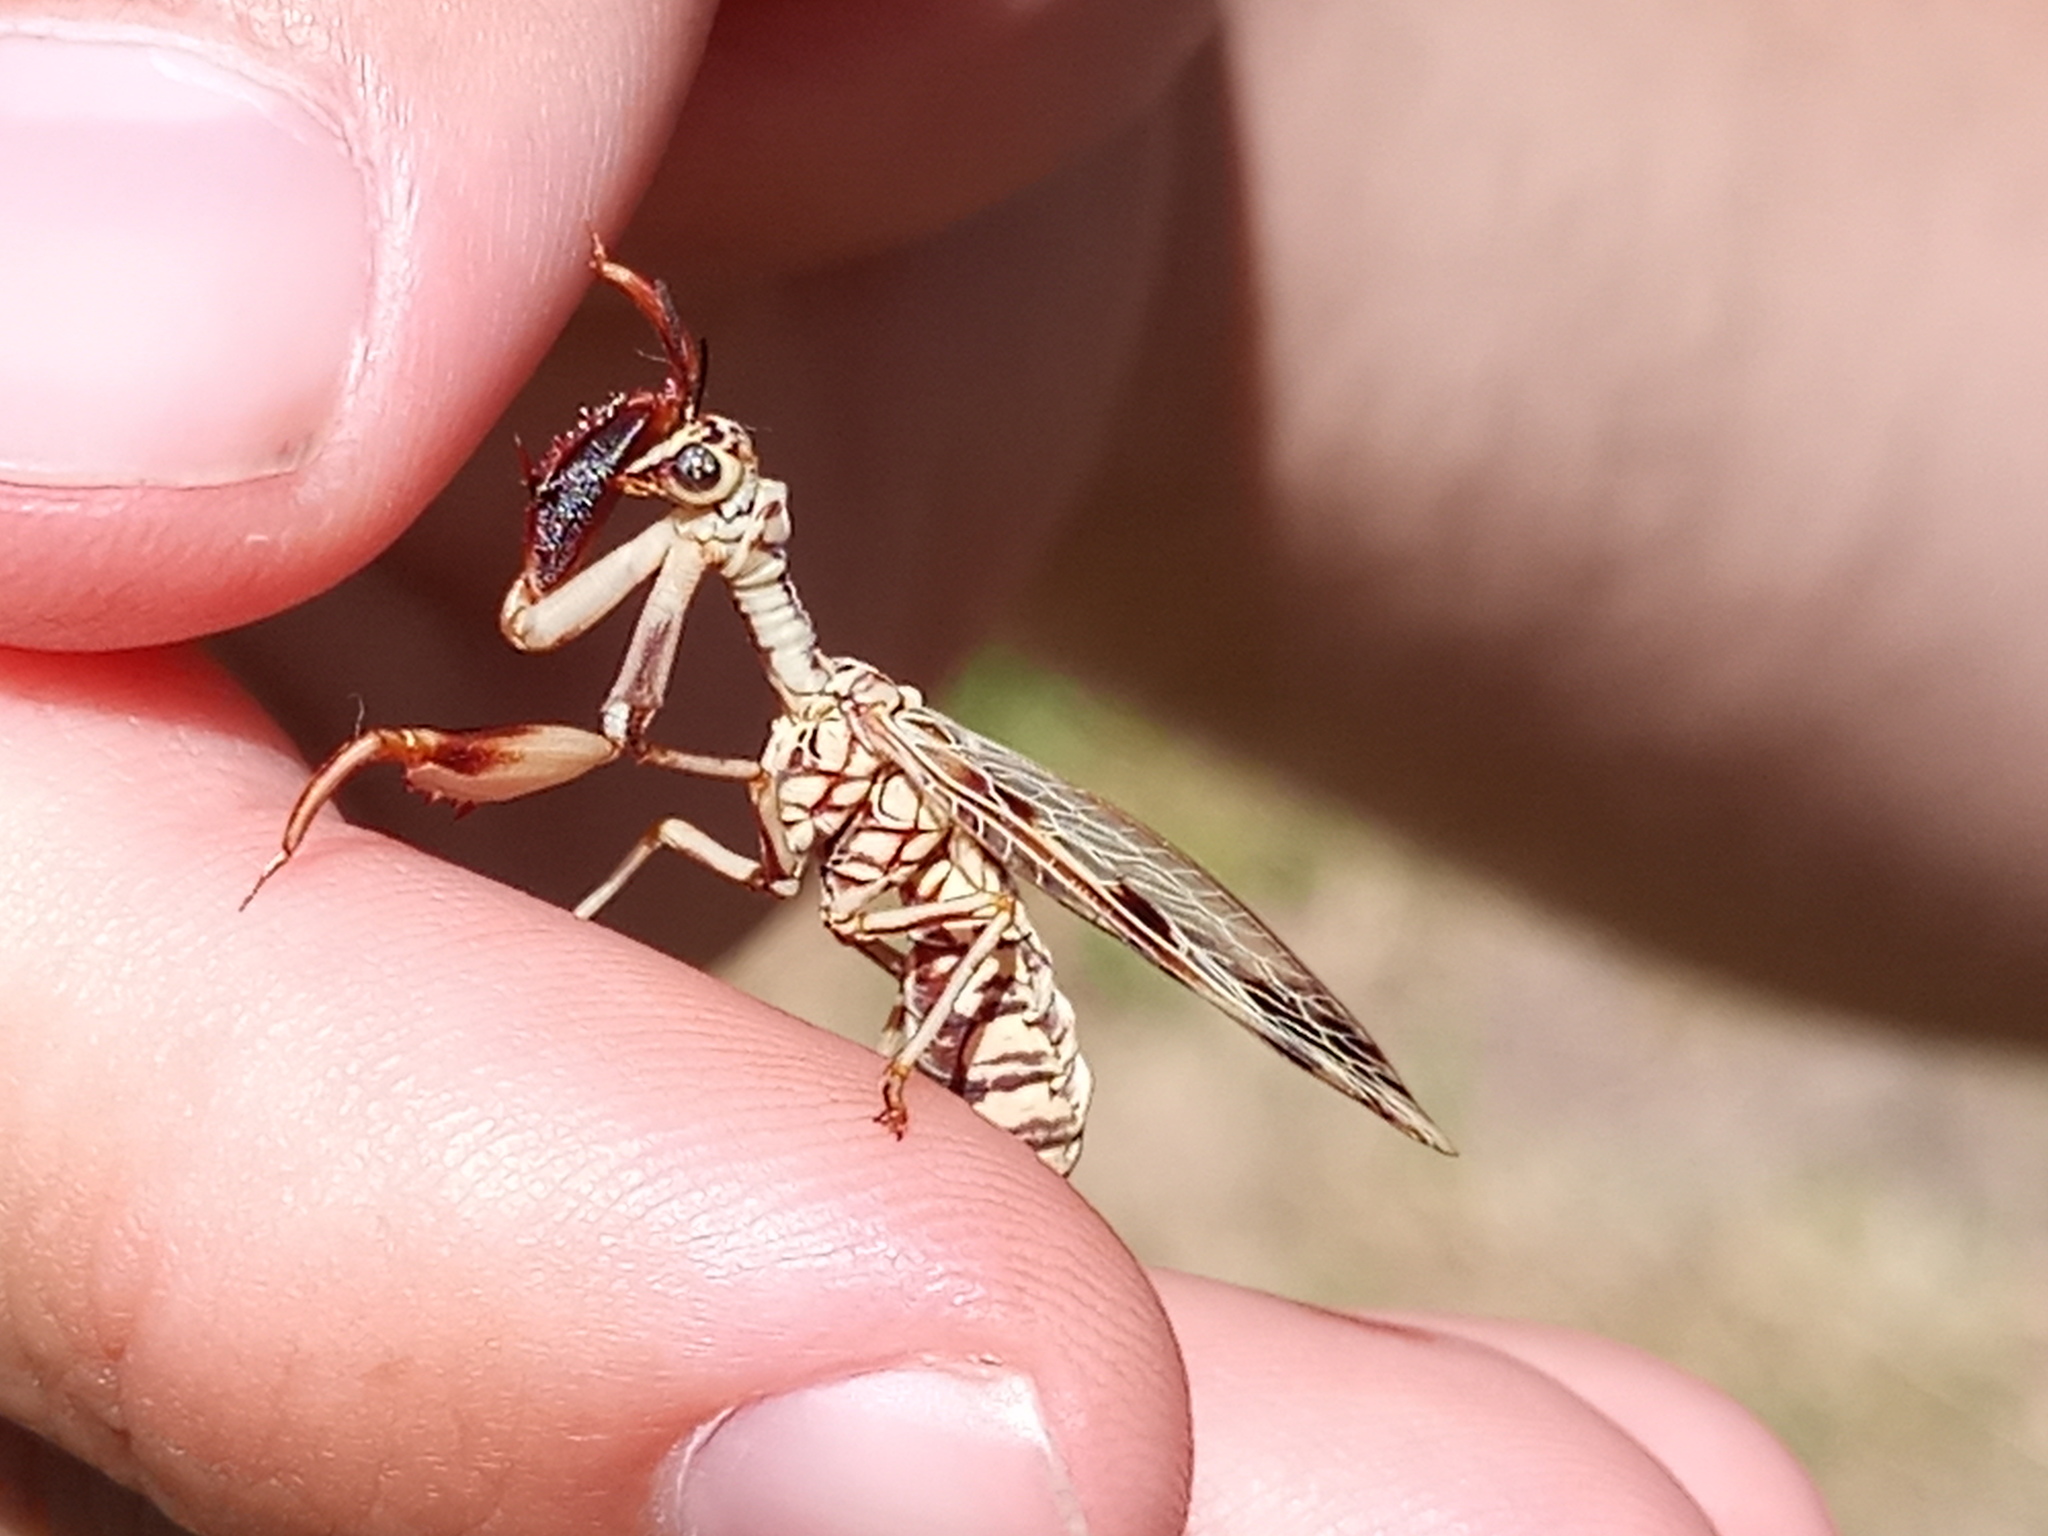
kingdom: Animalia
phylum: Arthropoda
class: Insecta
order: Neuroptera
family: Mantispidae
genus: Paramantispa
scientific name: Paramantispa ambusta
